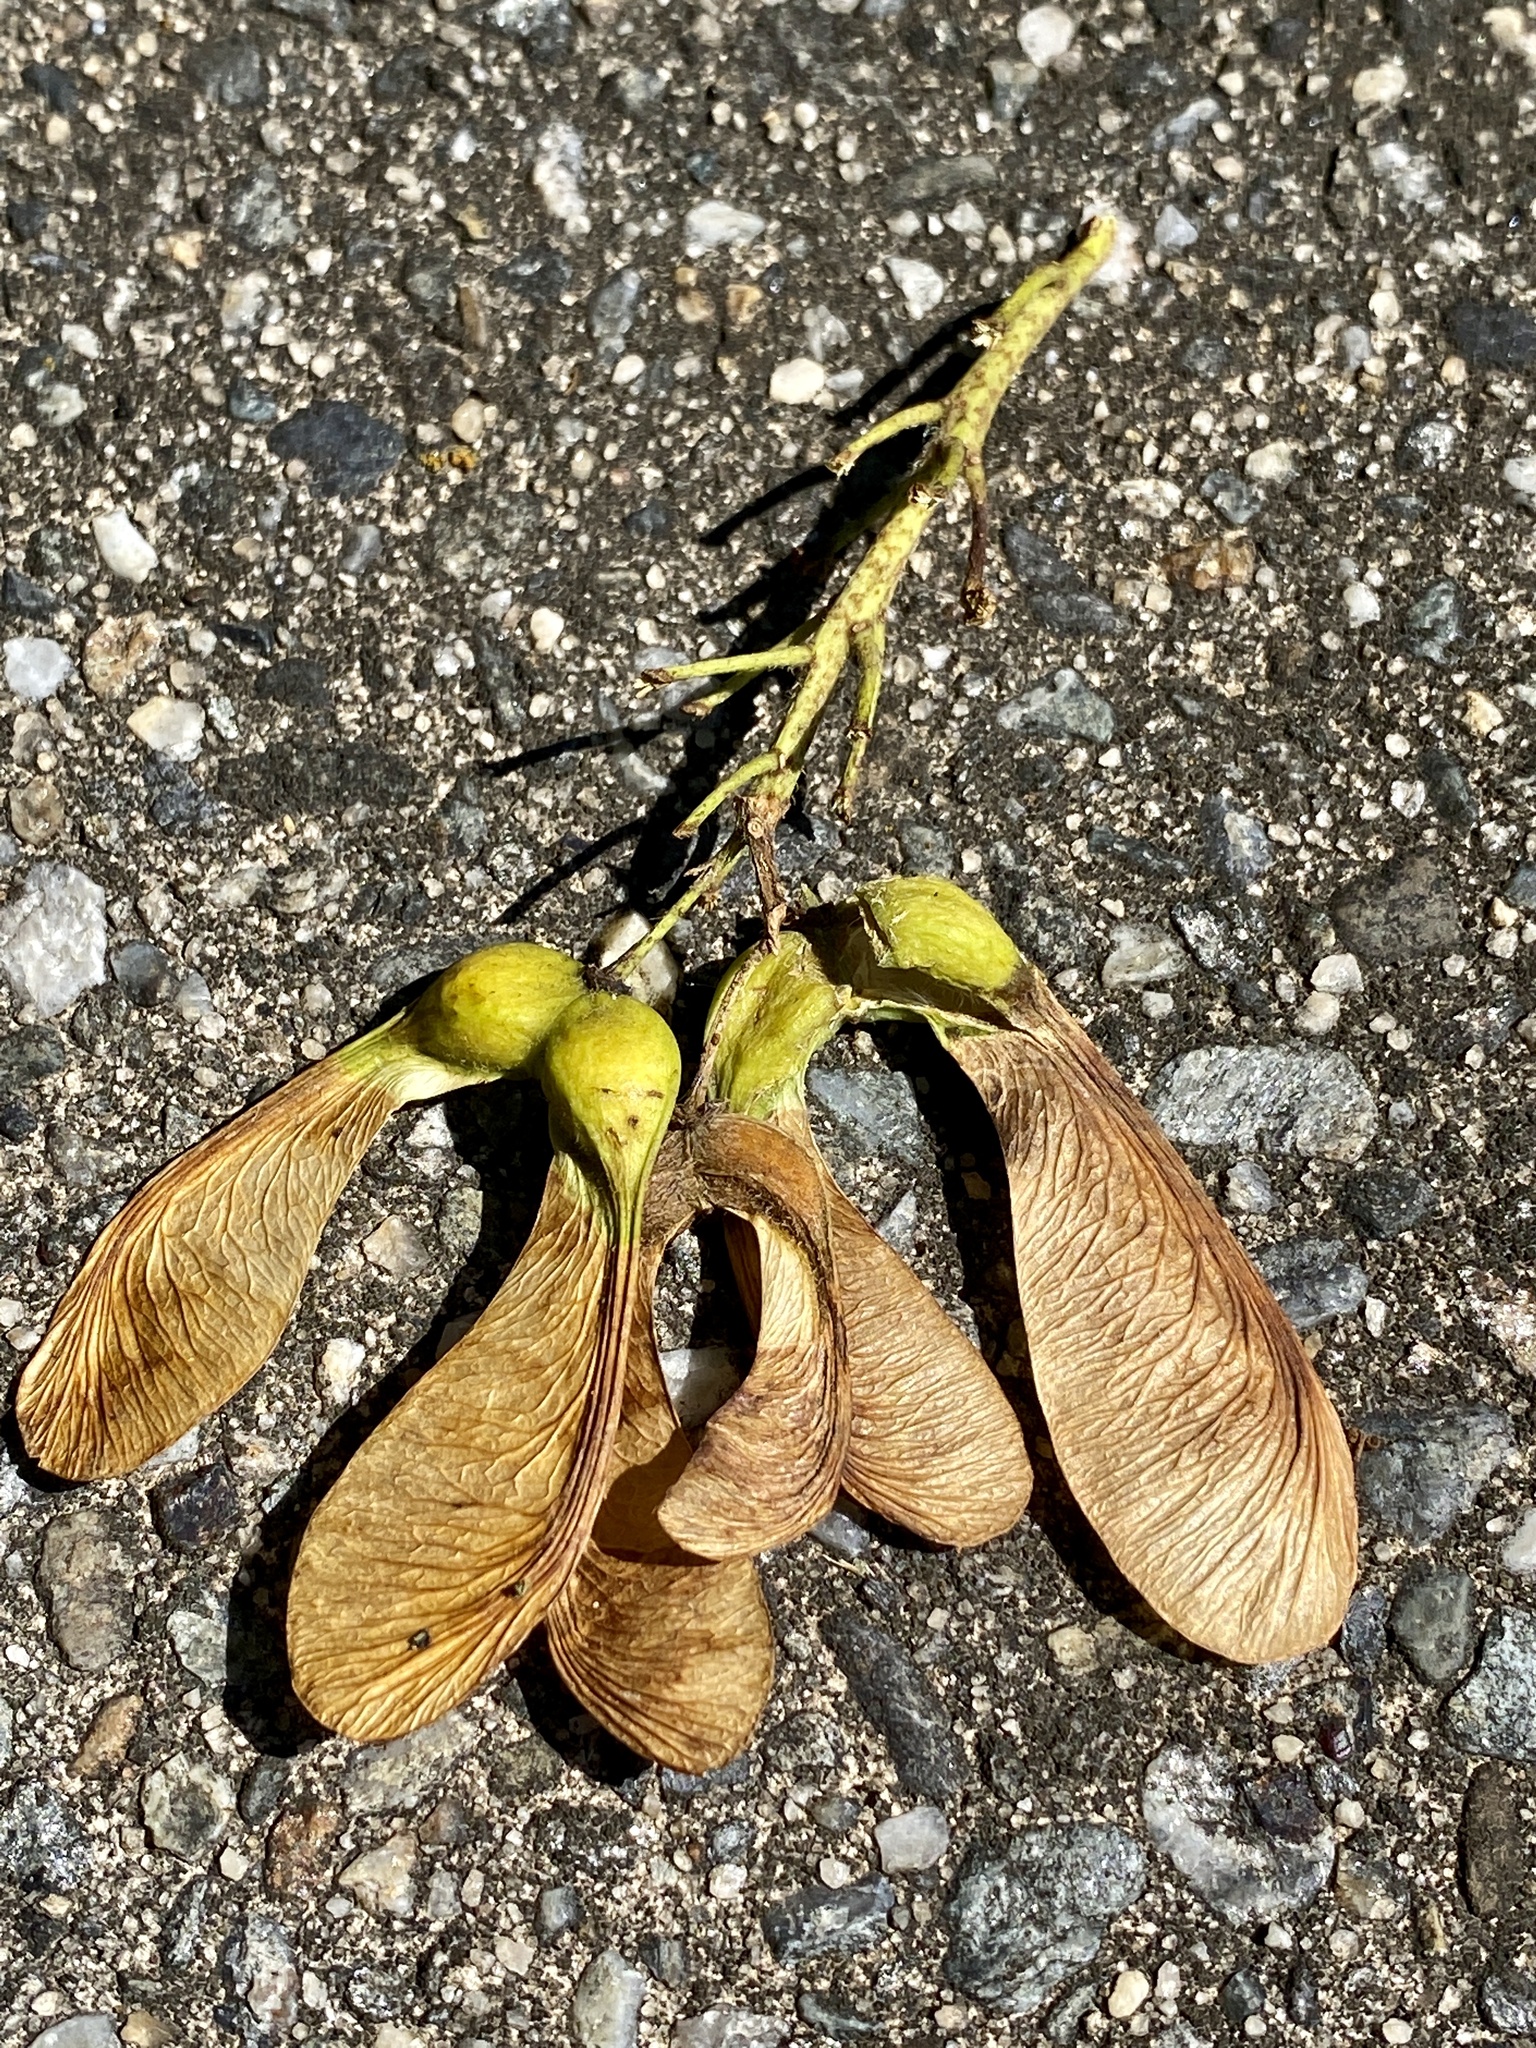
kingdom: Plantae
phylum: Tracheophyta
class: Magnoliopsida
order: Sapindales
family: Sapindaceae
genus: Acer
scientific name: Acer pseudoplatanus
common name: Sycamore
